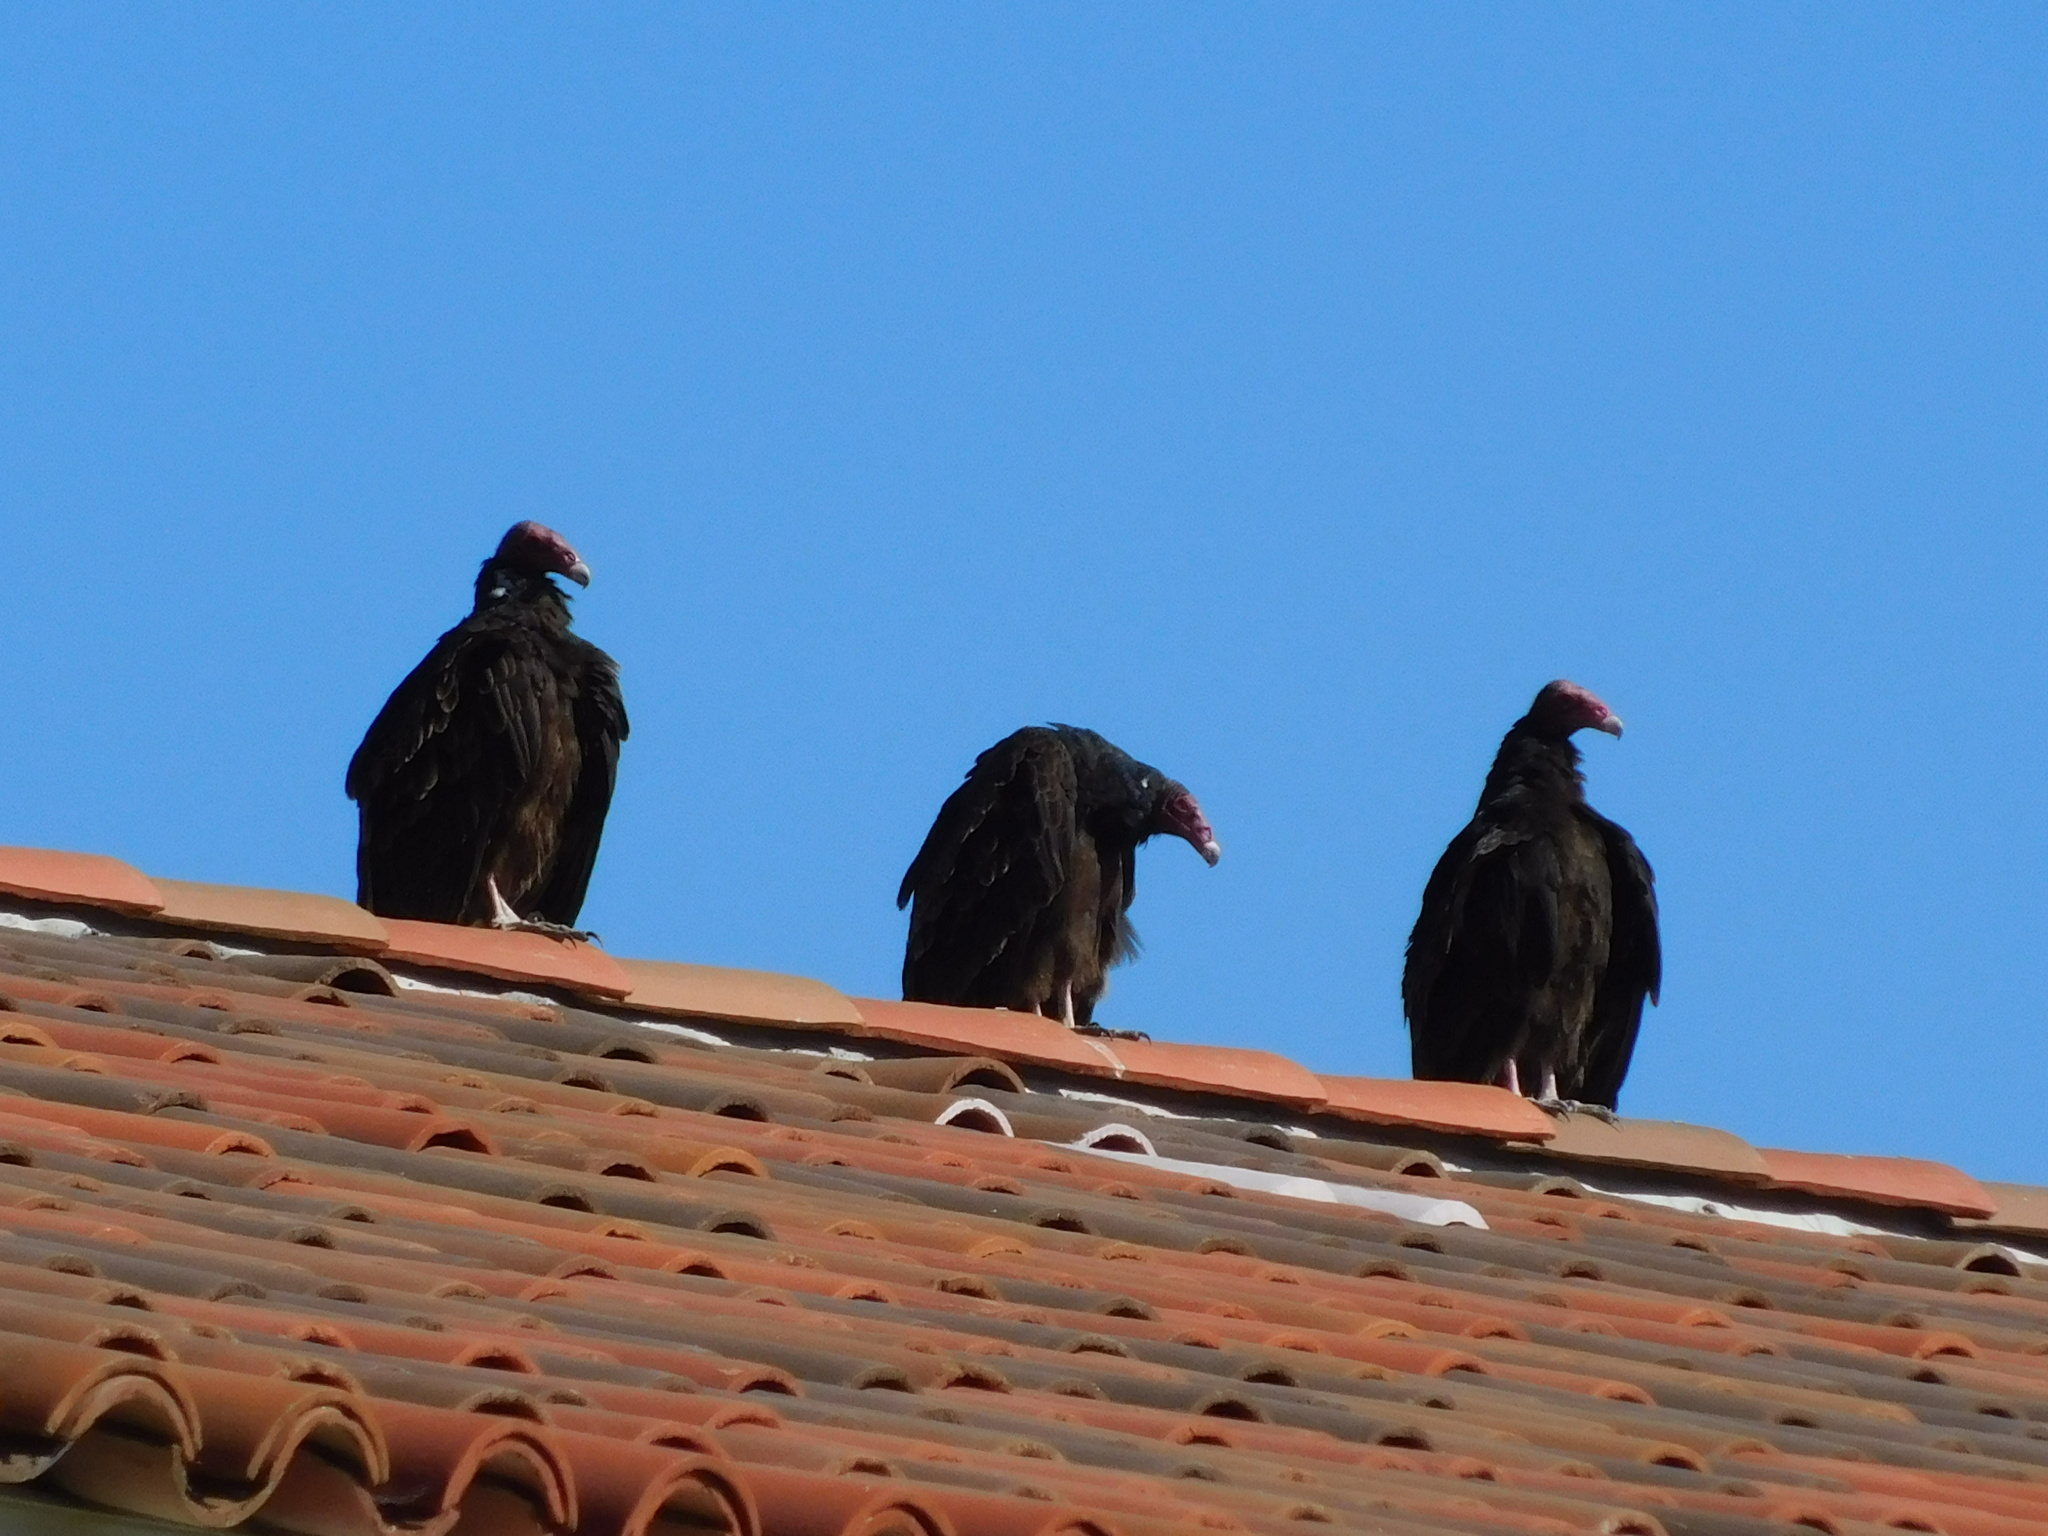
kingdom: Animalia
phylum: Chordata
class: Aves
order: Accipitriformes
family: Cathartidae
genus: Cathartes
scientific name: Cathartes aura
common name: Turkey vulture
